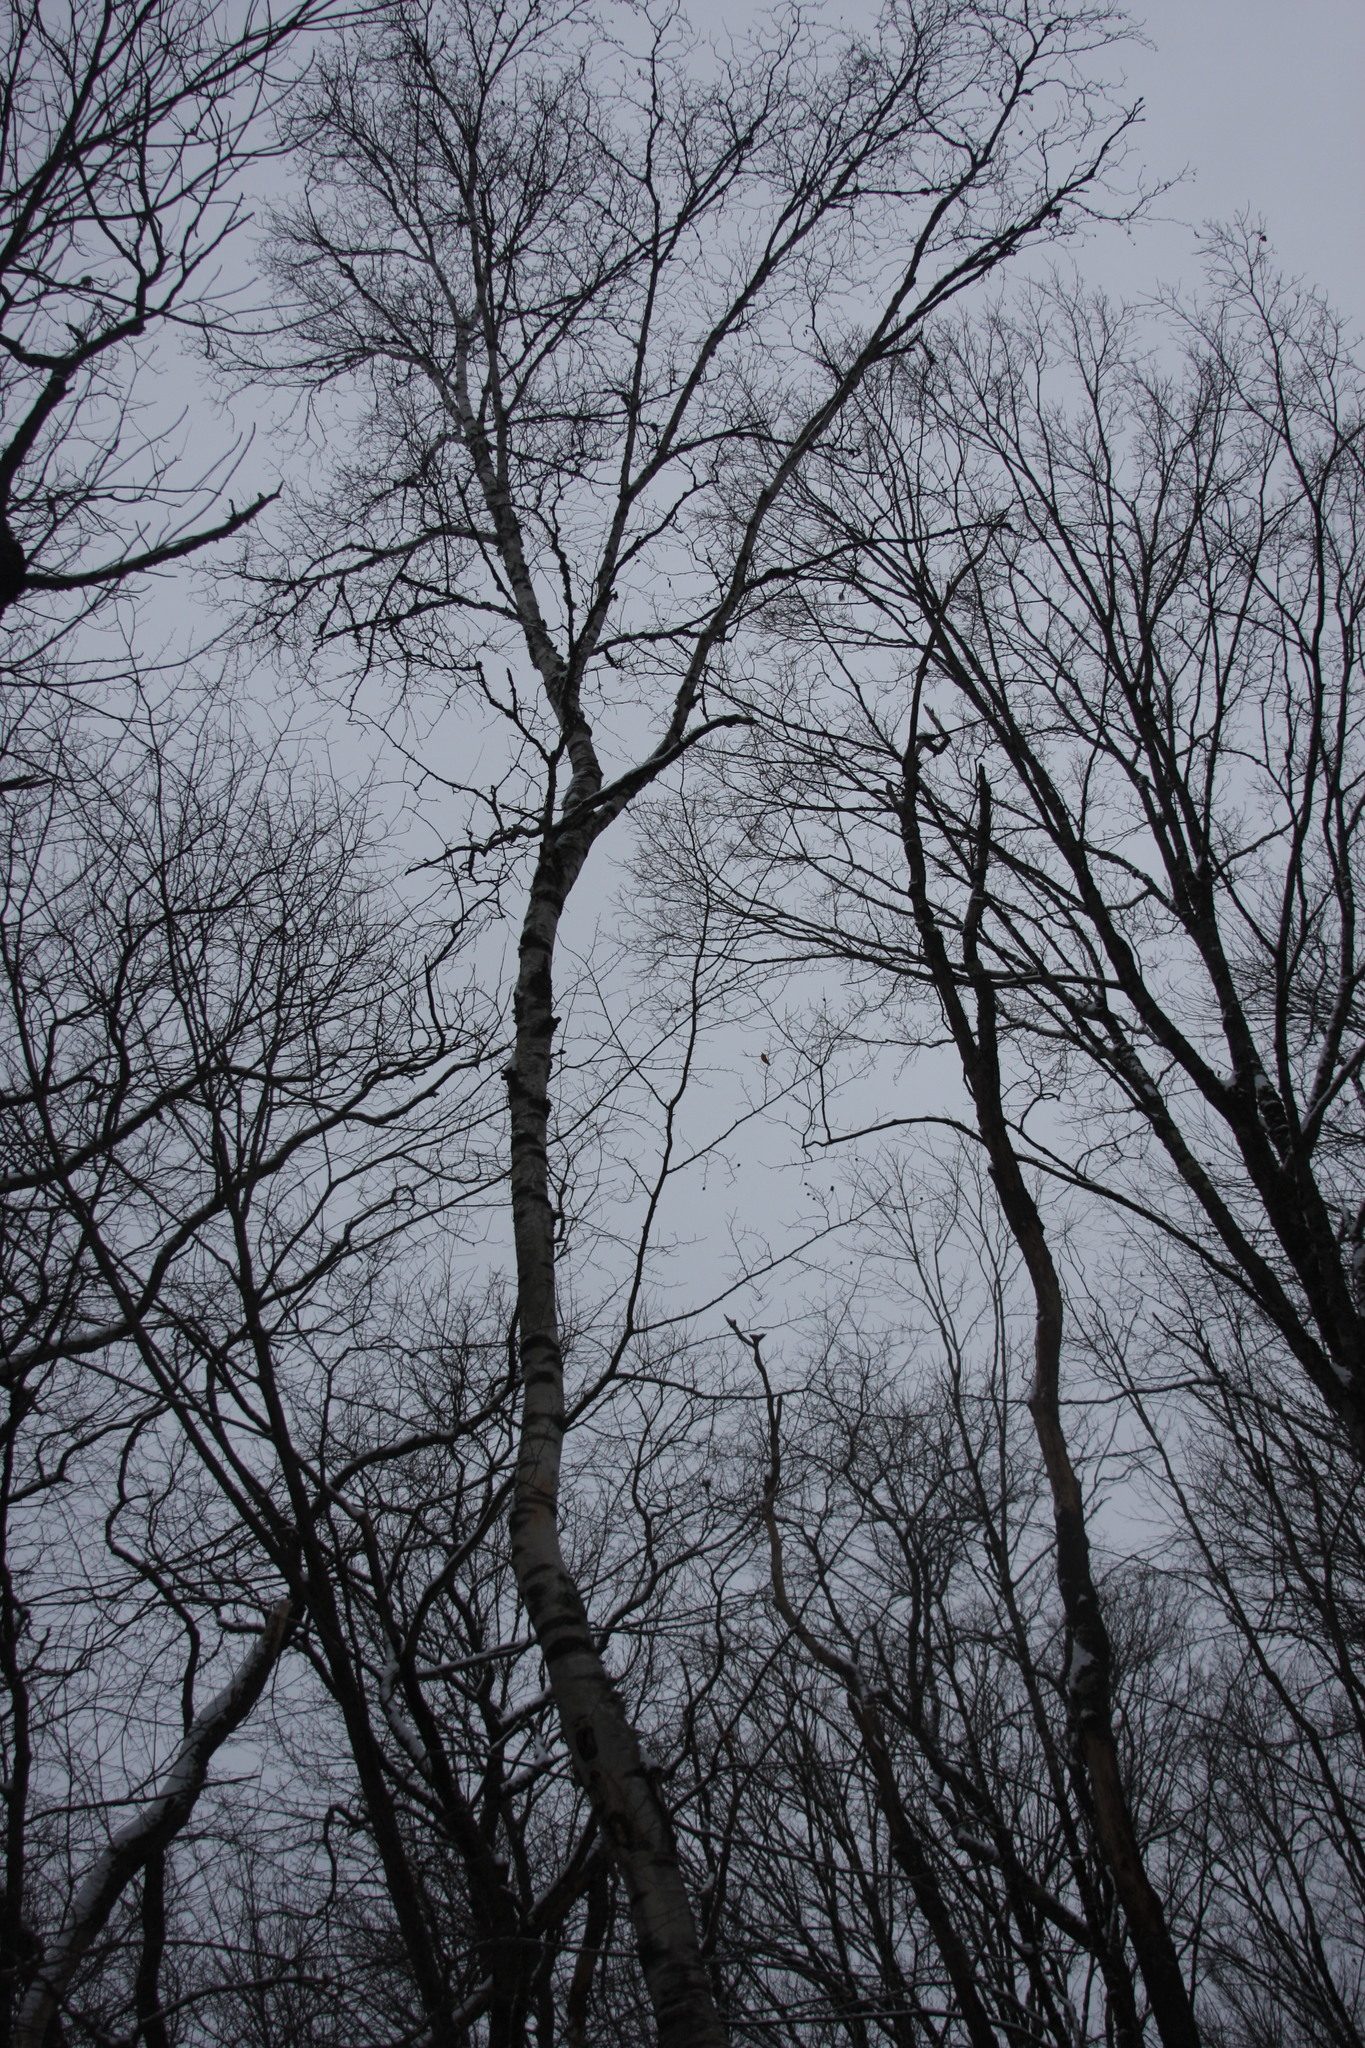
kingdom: Plantae
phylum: Tracheophyta
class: Magnoliopsida
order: Fagales
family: Betulaceae
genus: Betula
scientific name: Betula papyrifera
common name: Paper birch
